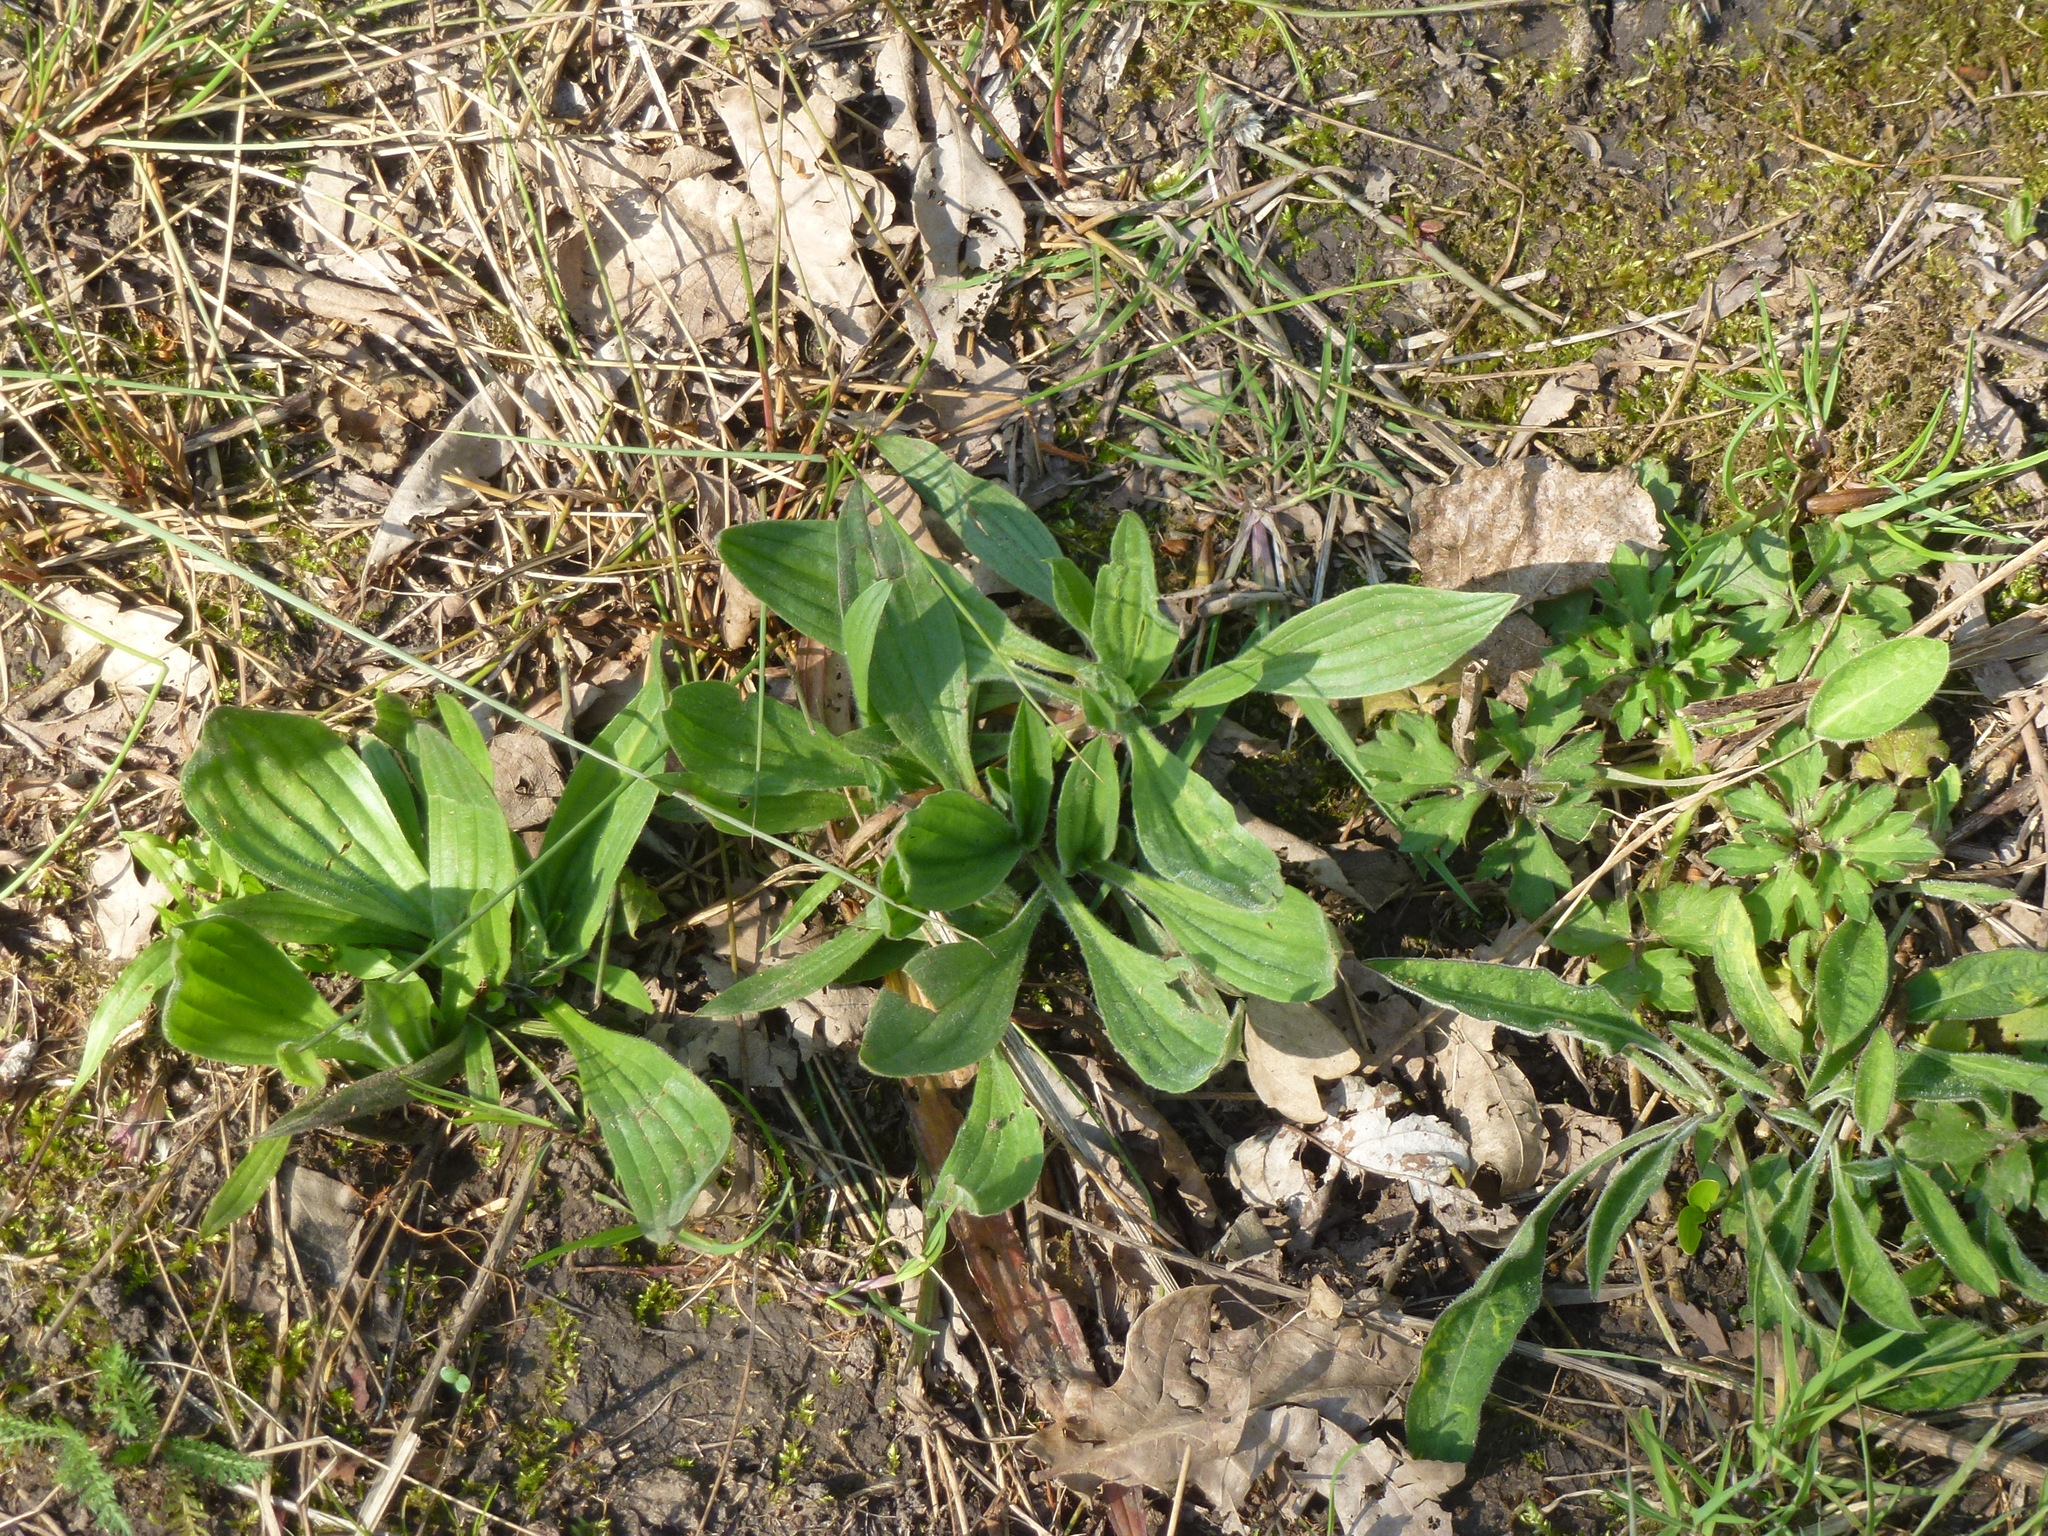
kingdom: Plantae
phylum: Tracheophyta
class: Magnoliopsida
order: Lamiales
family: Plantaginaceae
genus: Plantago
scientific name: Plantago lanceolata
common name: Ribwort plantain
